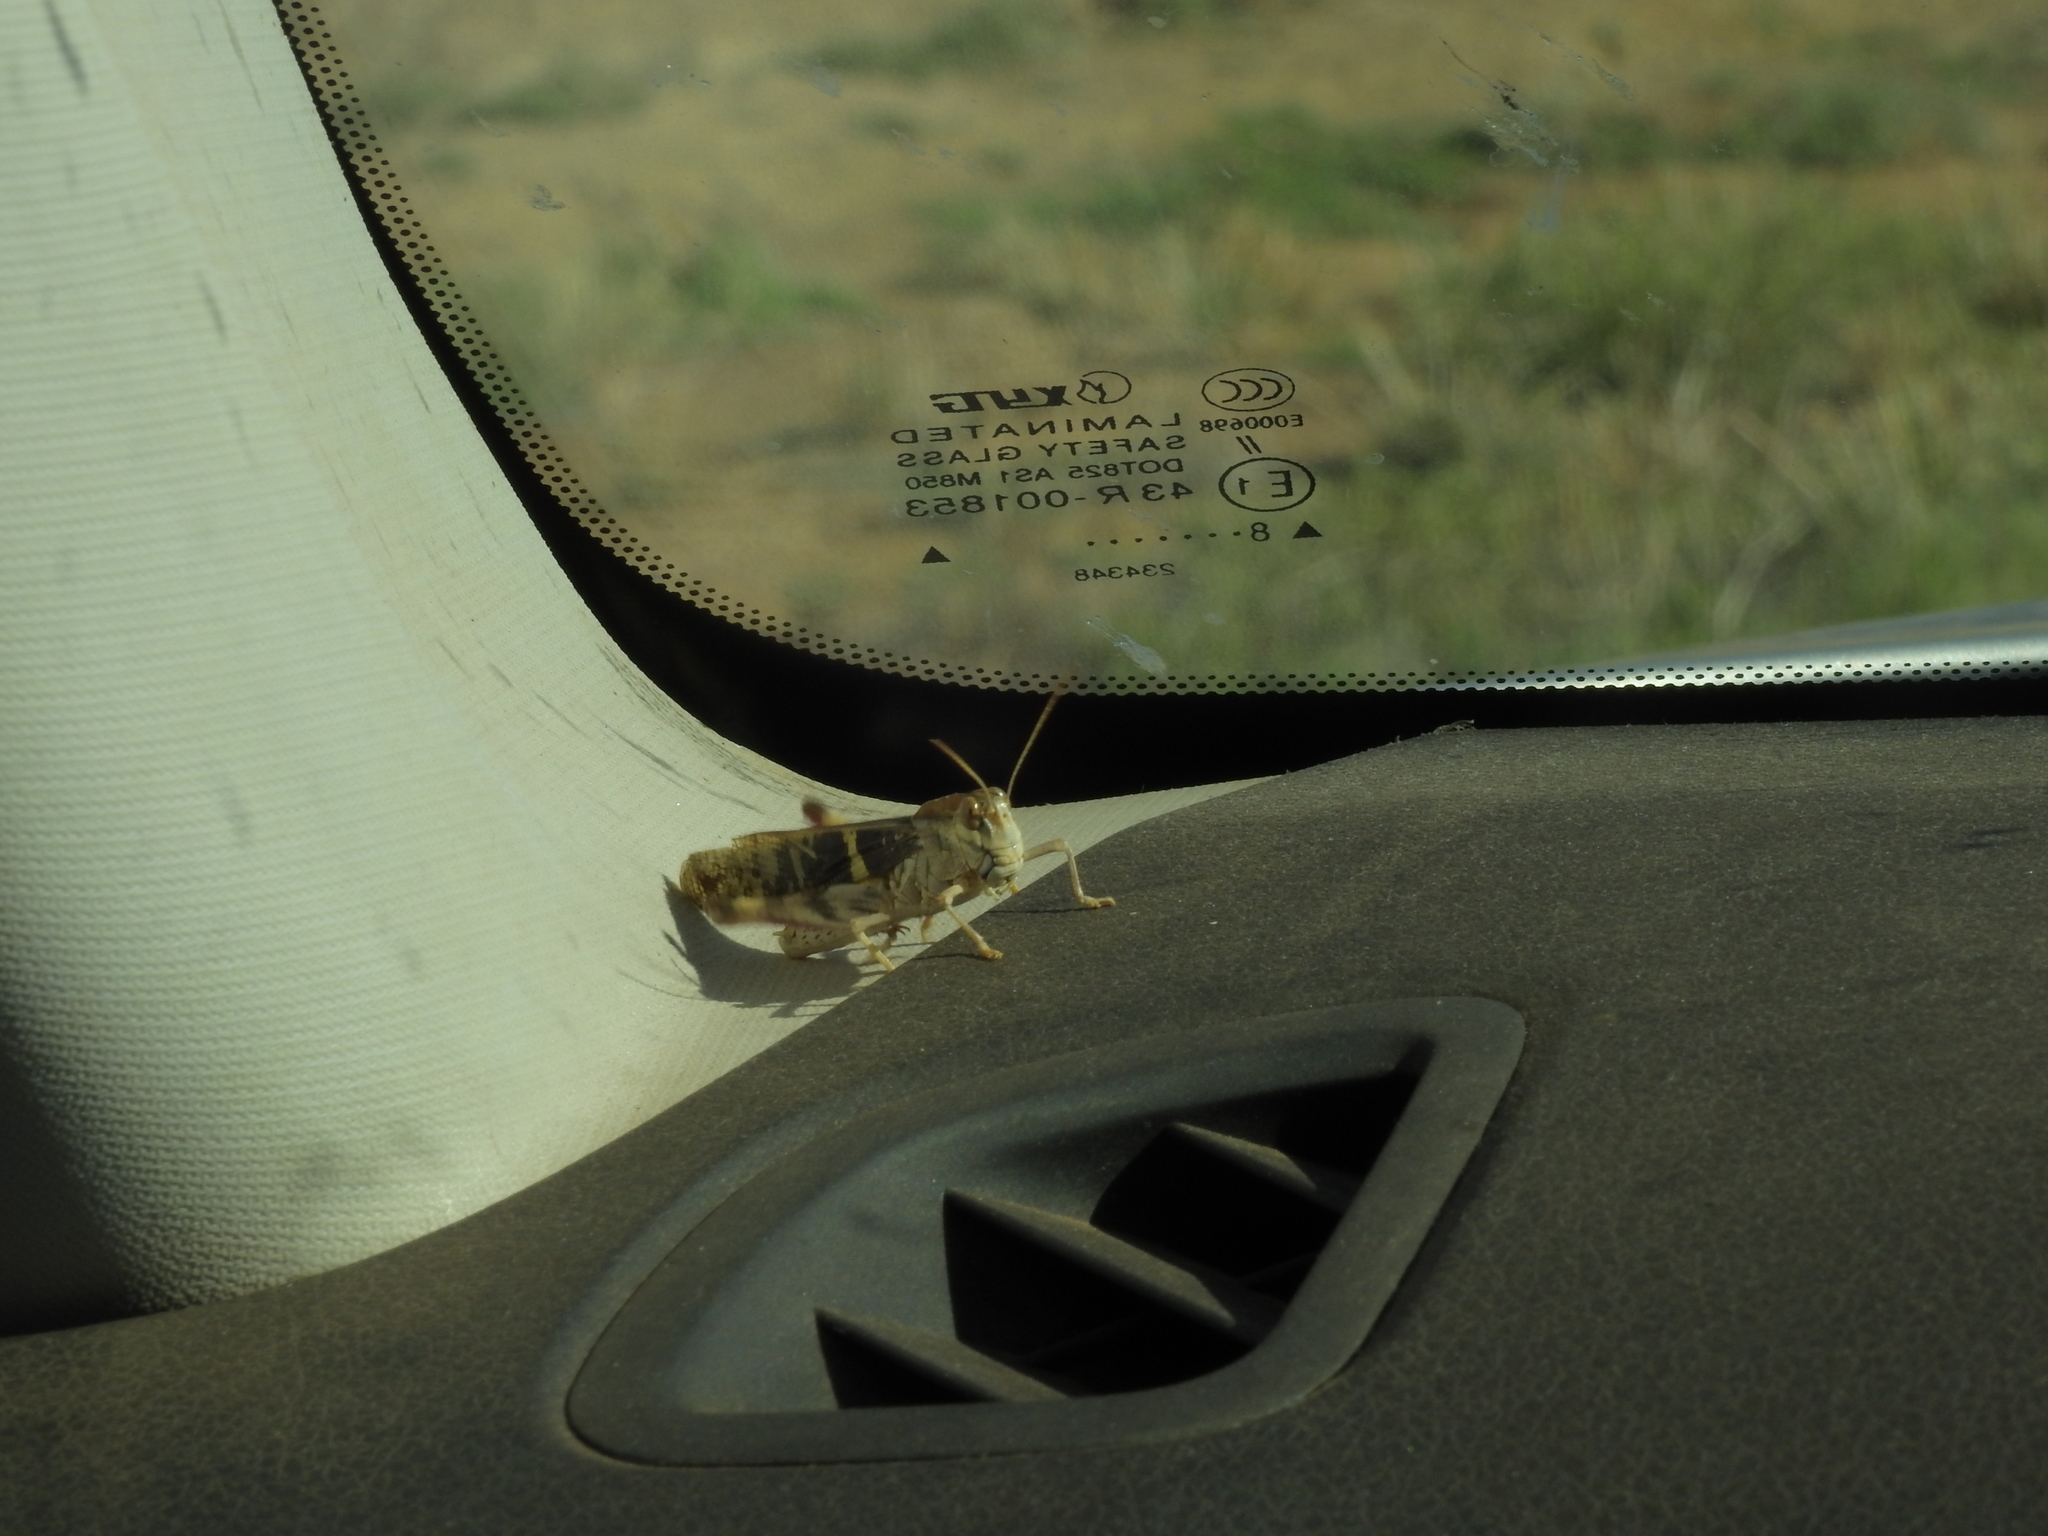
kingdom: Animalia
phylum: Arthropoda
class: Insecta
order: Orthoptera
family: Acrididae
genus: Gastrimargus
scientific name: Gastrimargus musicus
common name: Yellow-winged locust
